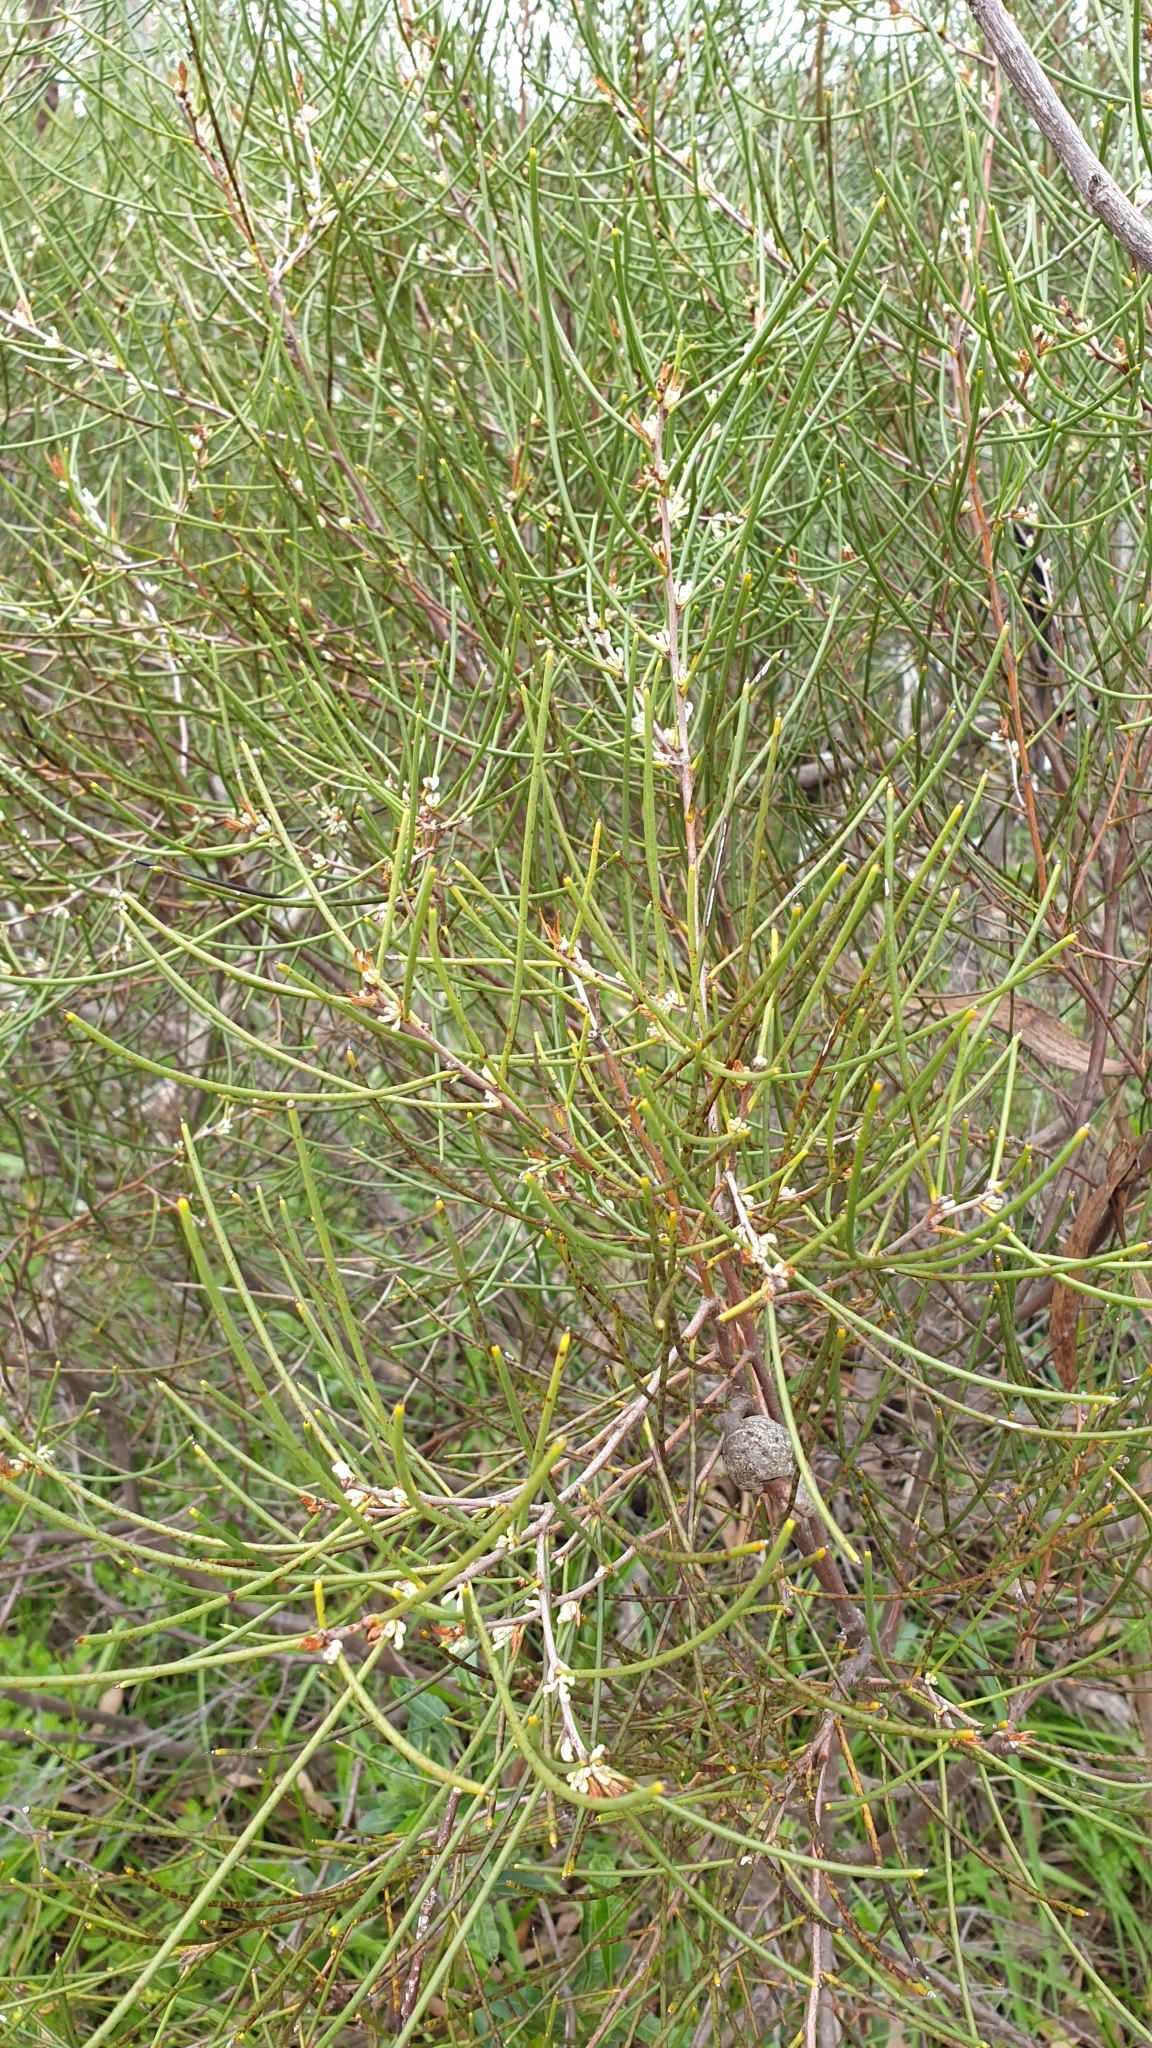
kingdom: Plantae
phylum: Tracheophyta
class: Magnoliopsida
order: Proteales
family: Proteaceae
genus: Hakea
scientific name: Hakea rostrata
